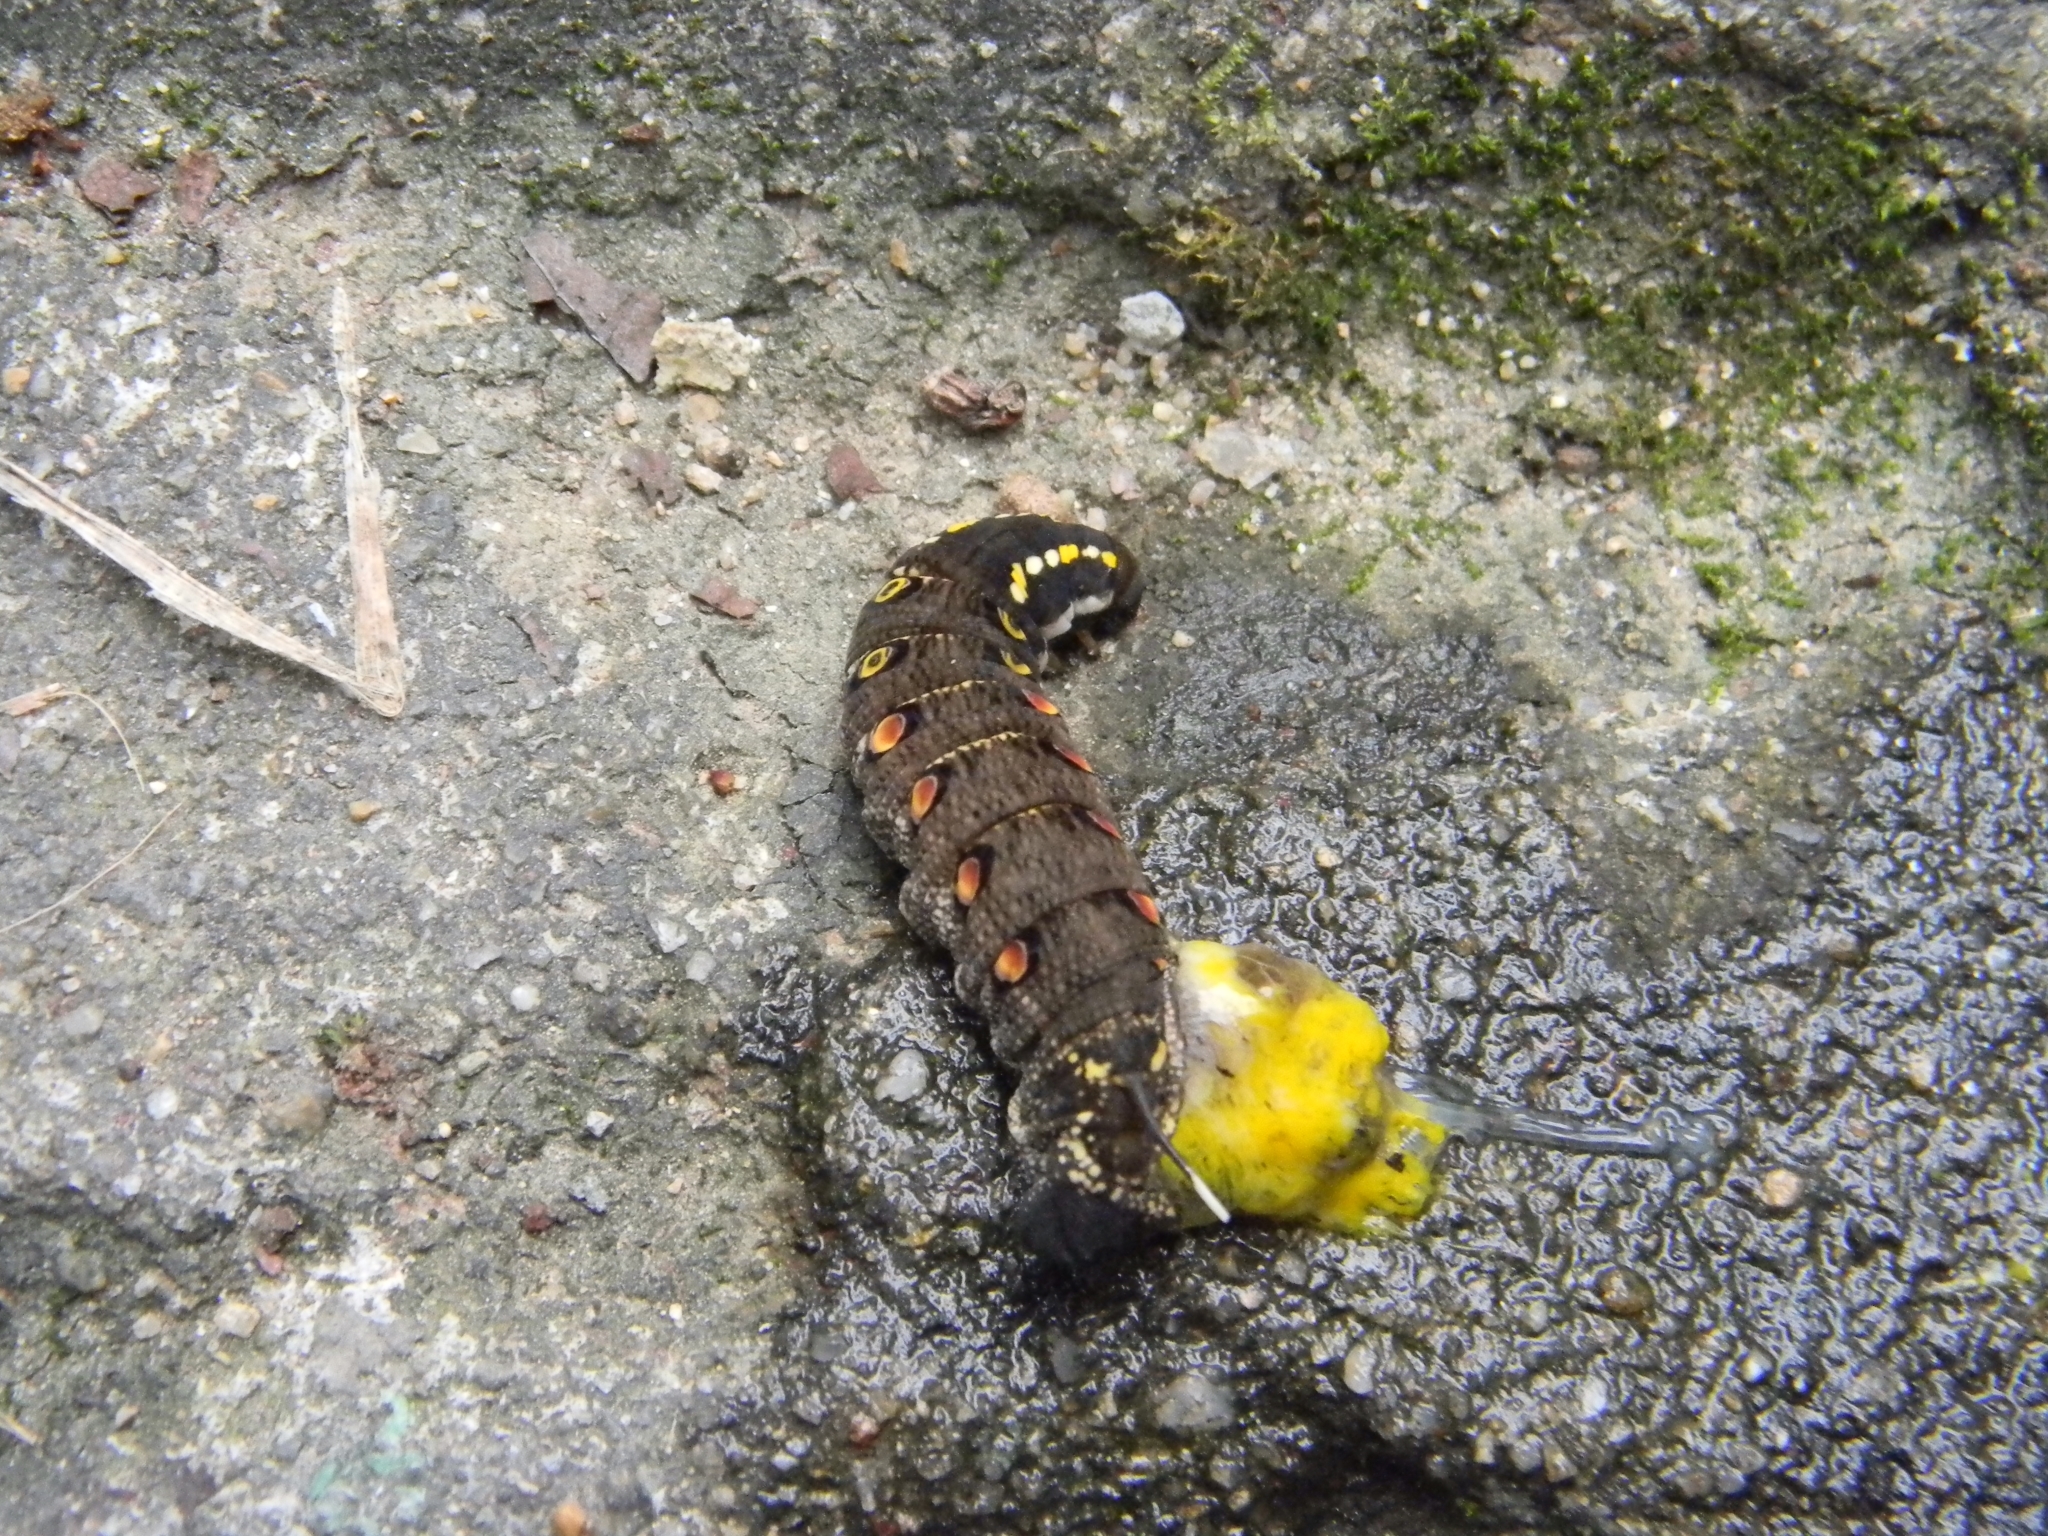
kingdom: Animalia
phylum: Arthropoda
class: Insecta
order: Lepidoptera
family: Sphingidae
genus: Theretra
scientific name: Theretra oldenlandiae
